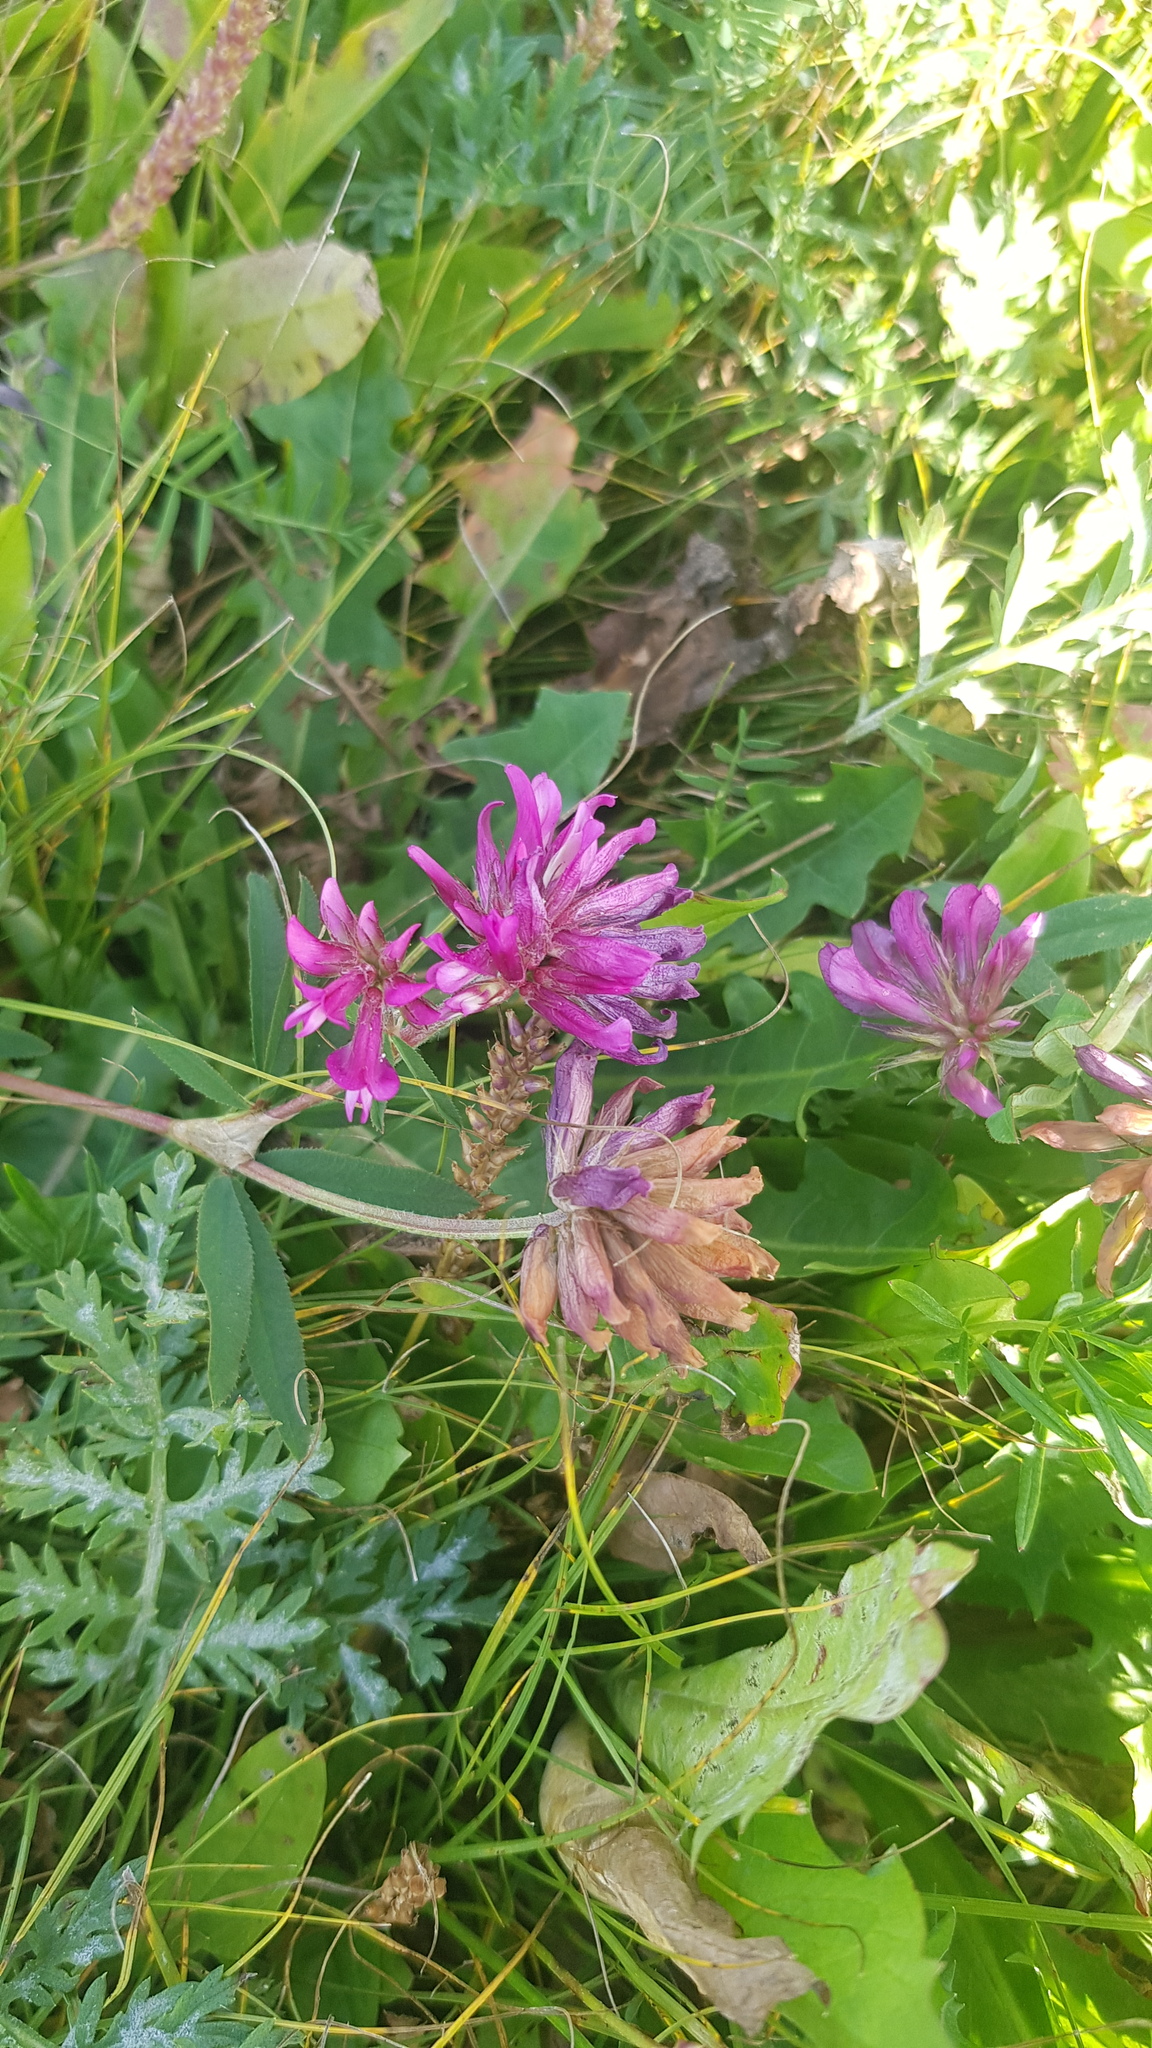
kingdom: Plantae
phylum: Tracheophyta
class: Magnoliopsida
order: Fabales
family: Fabaceae
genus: Trifolium
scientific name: Trifolium lupinaster
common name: Lupine clover
